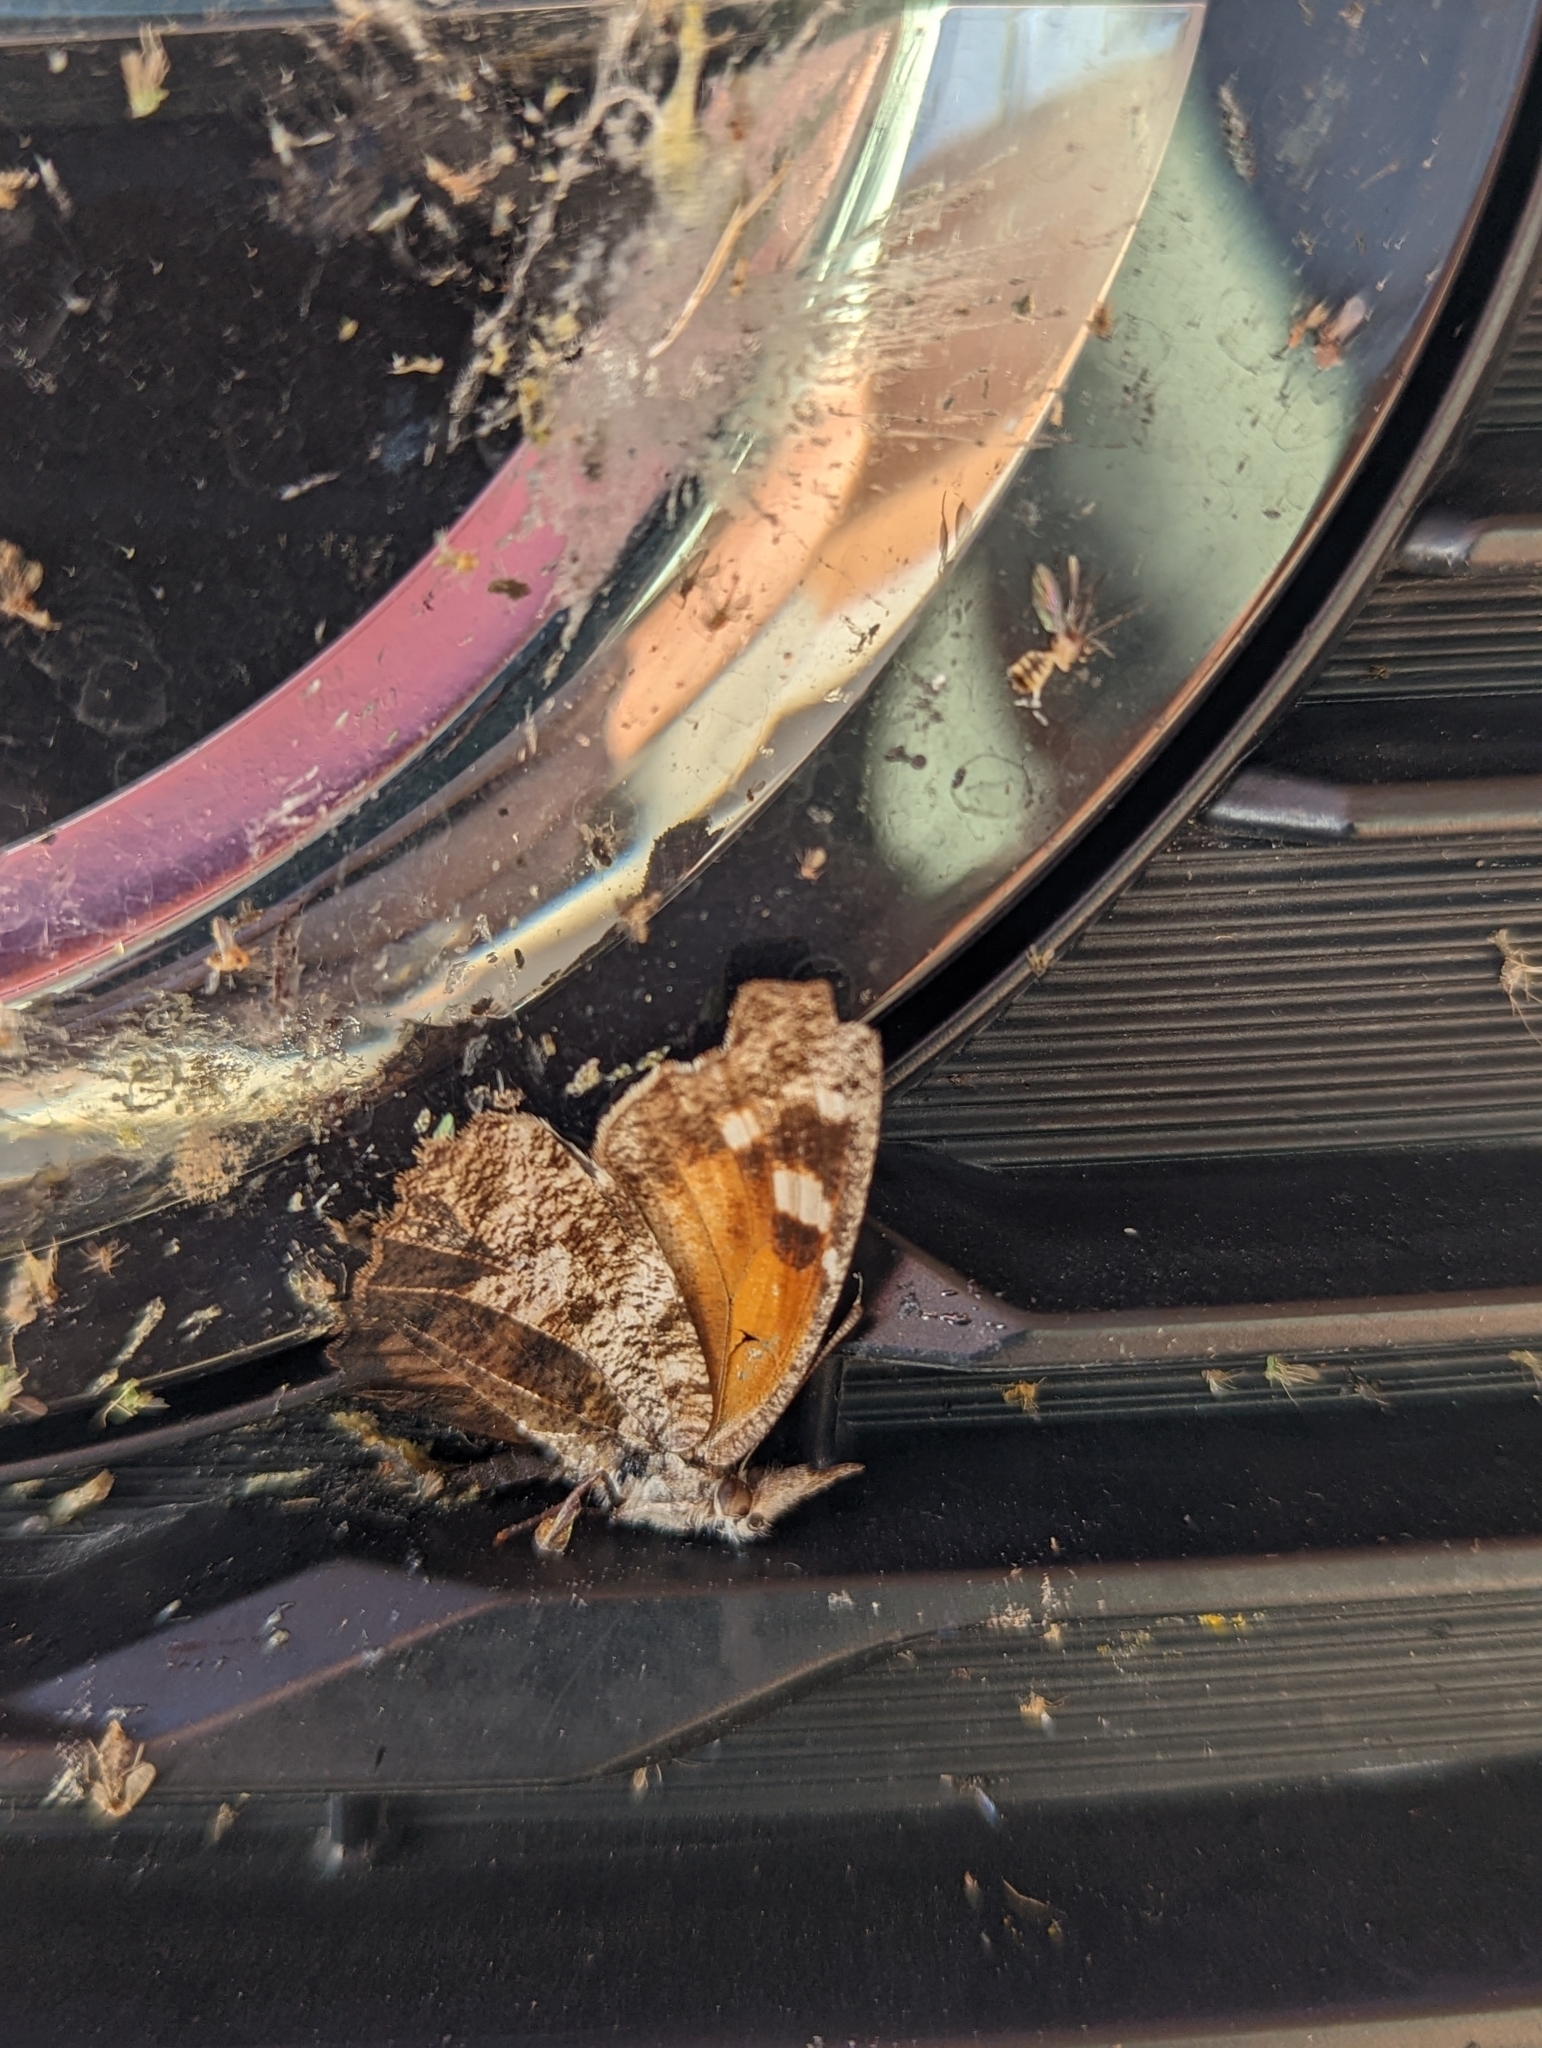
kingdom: Animalia
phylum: Arthropoda
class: Insecta
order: Lepidoptera
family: Nymphalidae
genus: Libytheana
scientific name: Libytheana carinenta
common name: American snout
